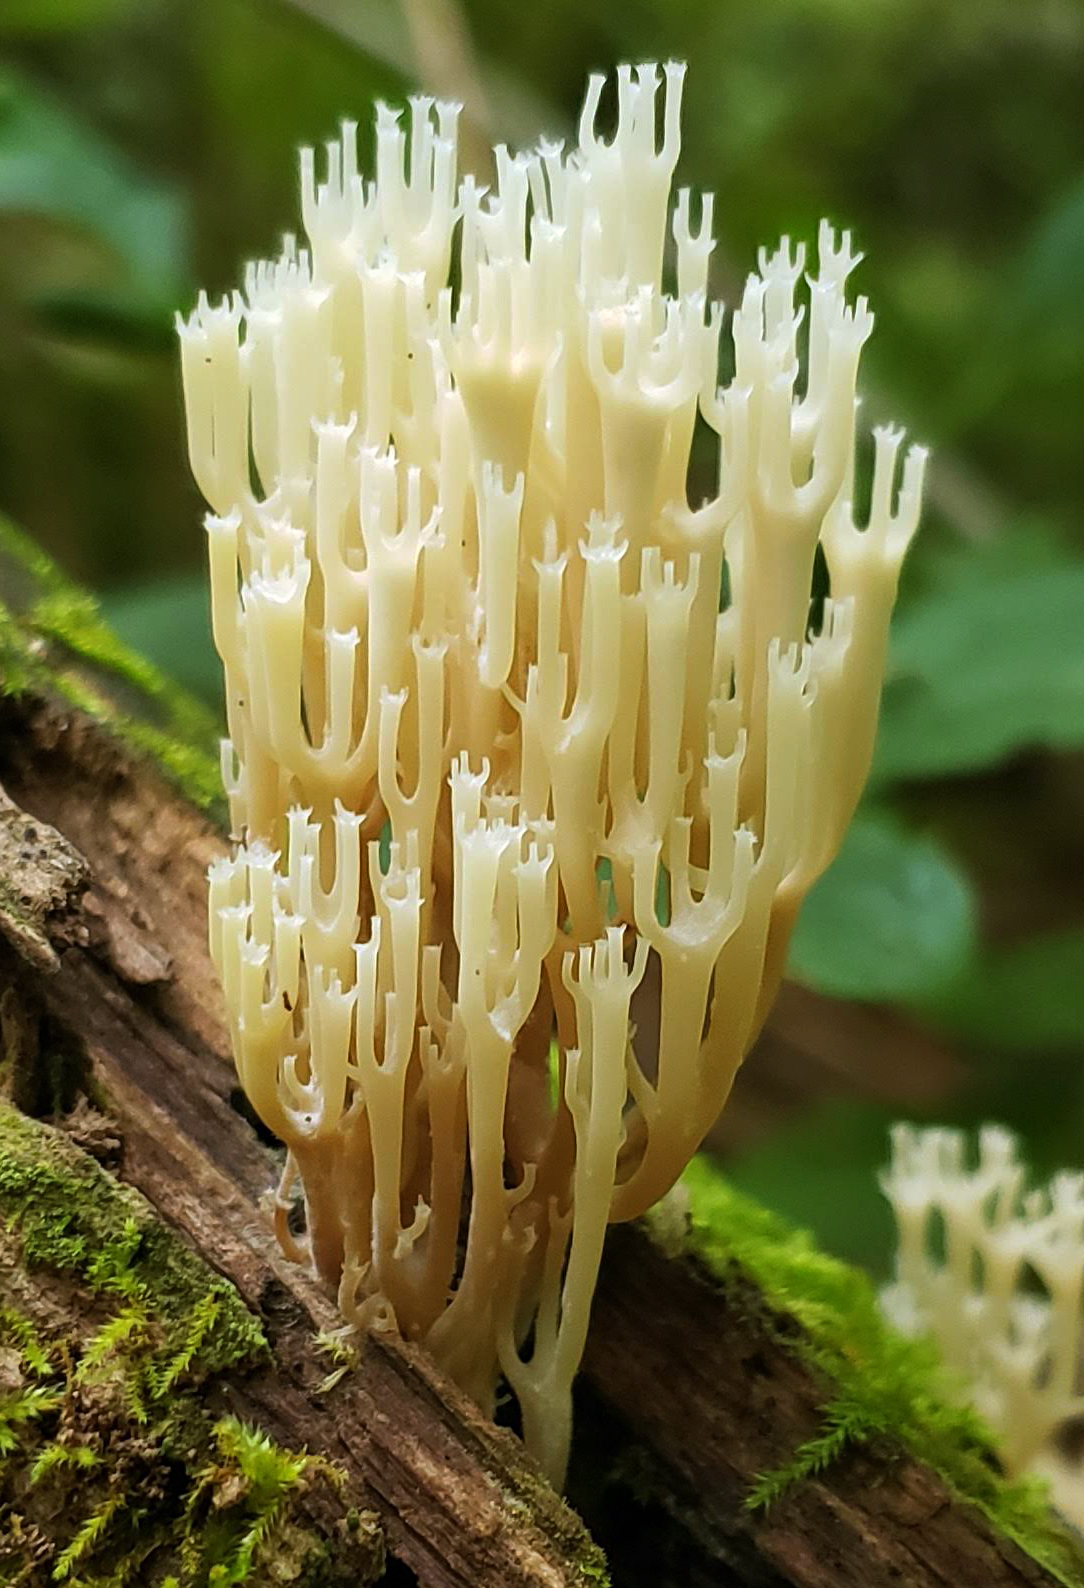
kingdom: Fungi
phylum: Basidiomycota
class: Agaricomycetes
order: Russulales
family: Auriscalpiaceae
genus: Artomyces
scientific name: Artomyces pyxidatus
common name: Crown-tipped coral fungus
